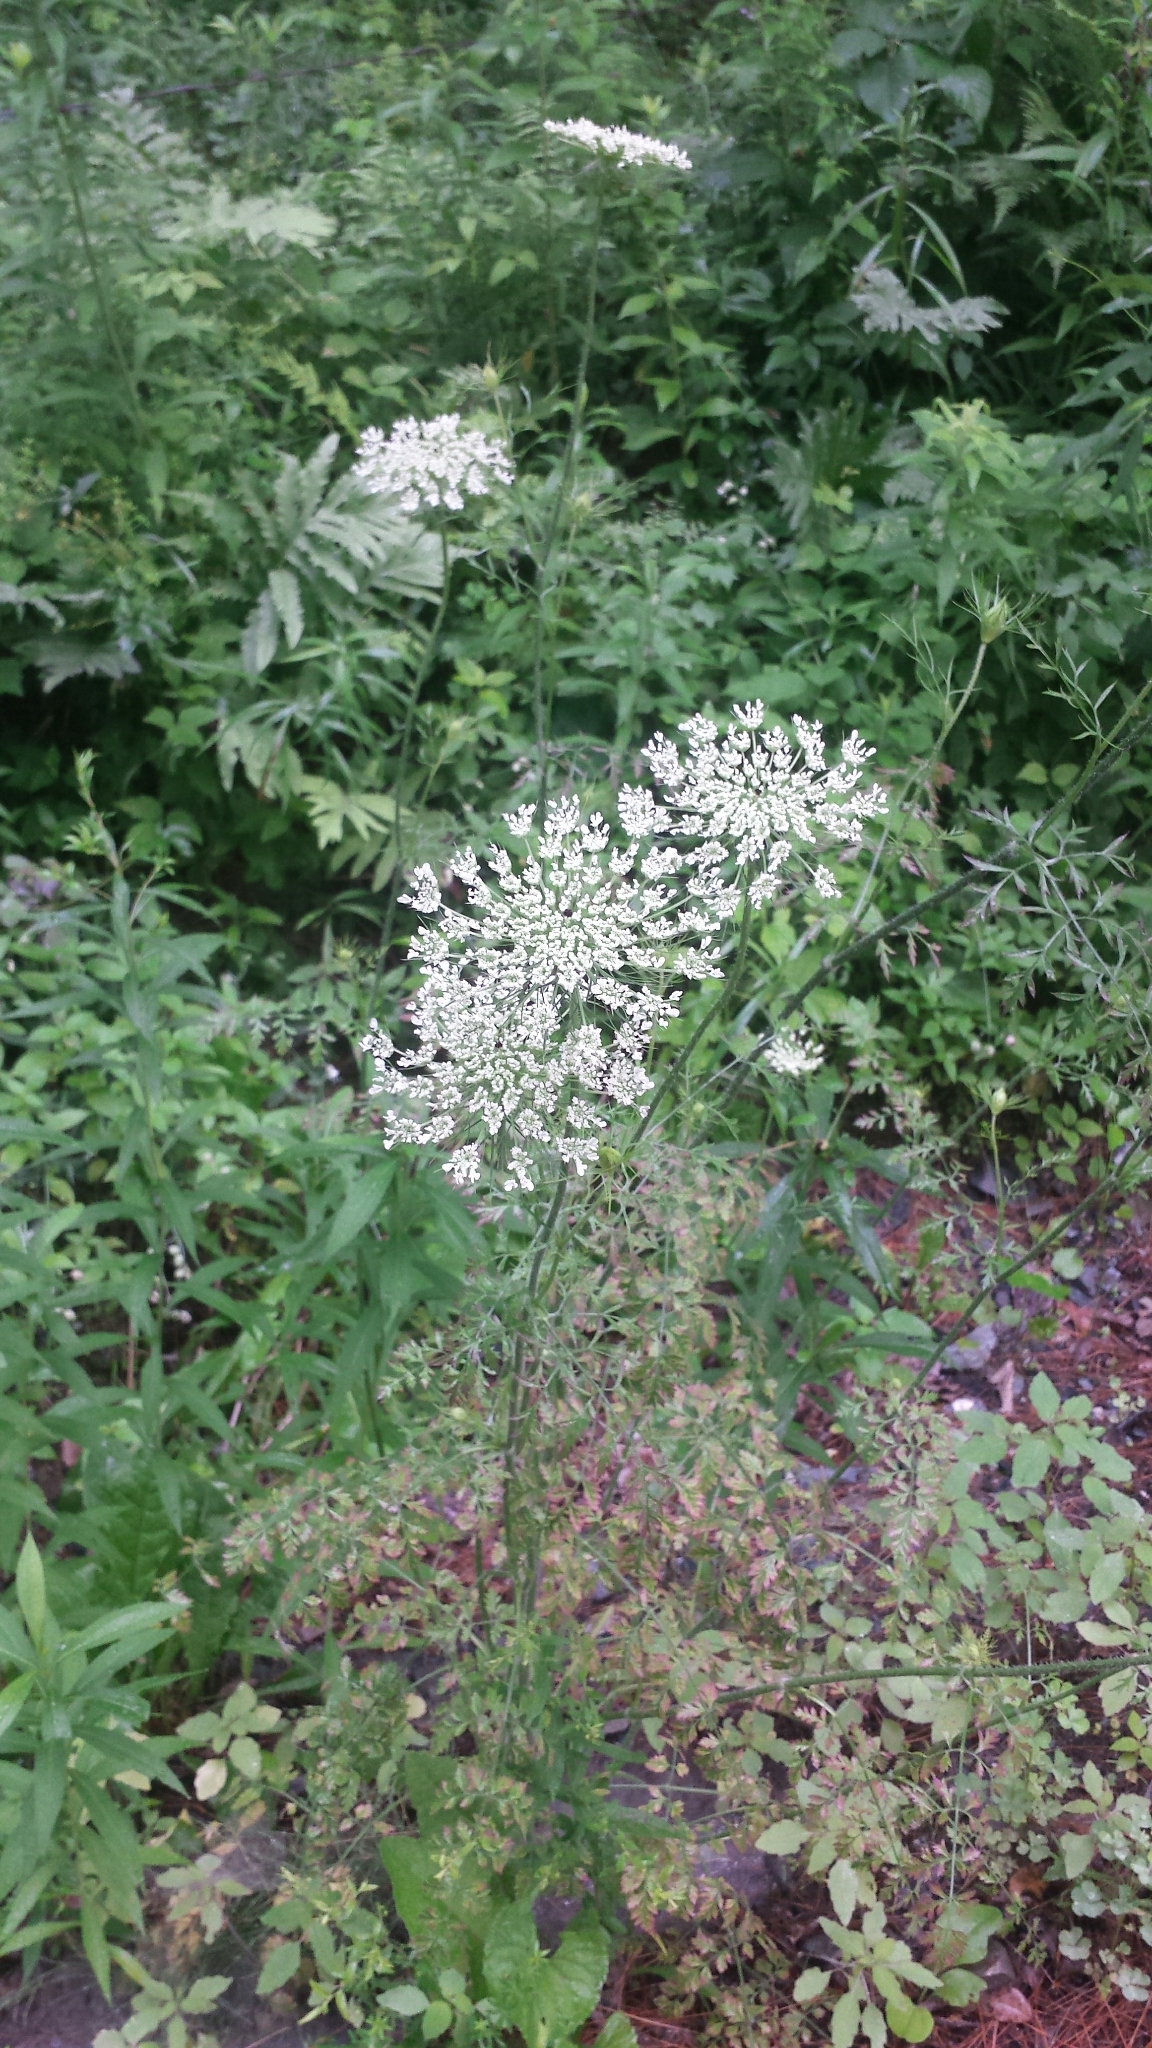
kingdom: Plantae
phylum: Tracheophyta
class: Magnoliopsida
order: Apiales
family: Apiaceae
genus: Daucus
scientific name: Daucus carota
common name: Wild carrot
